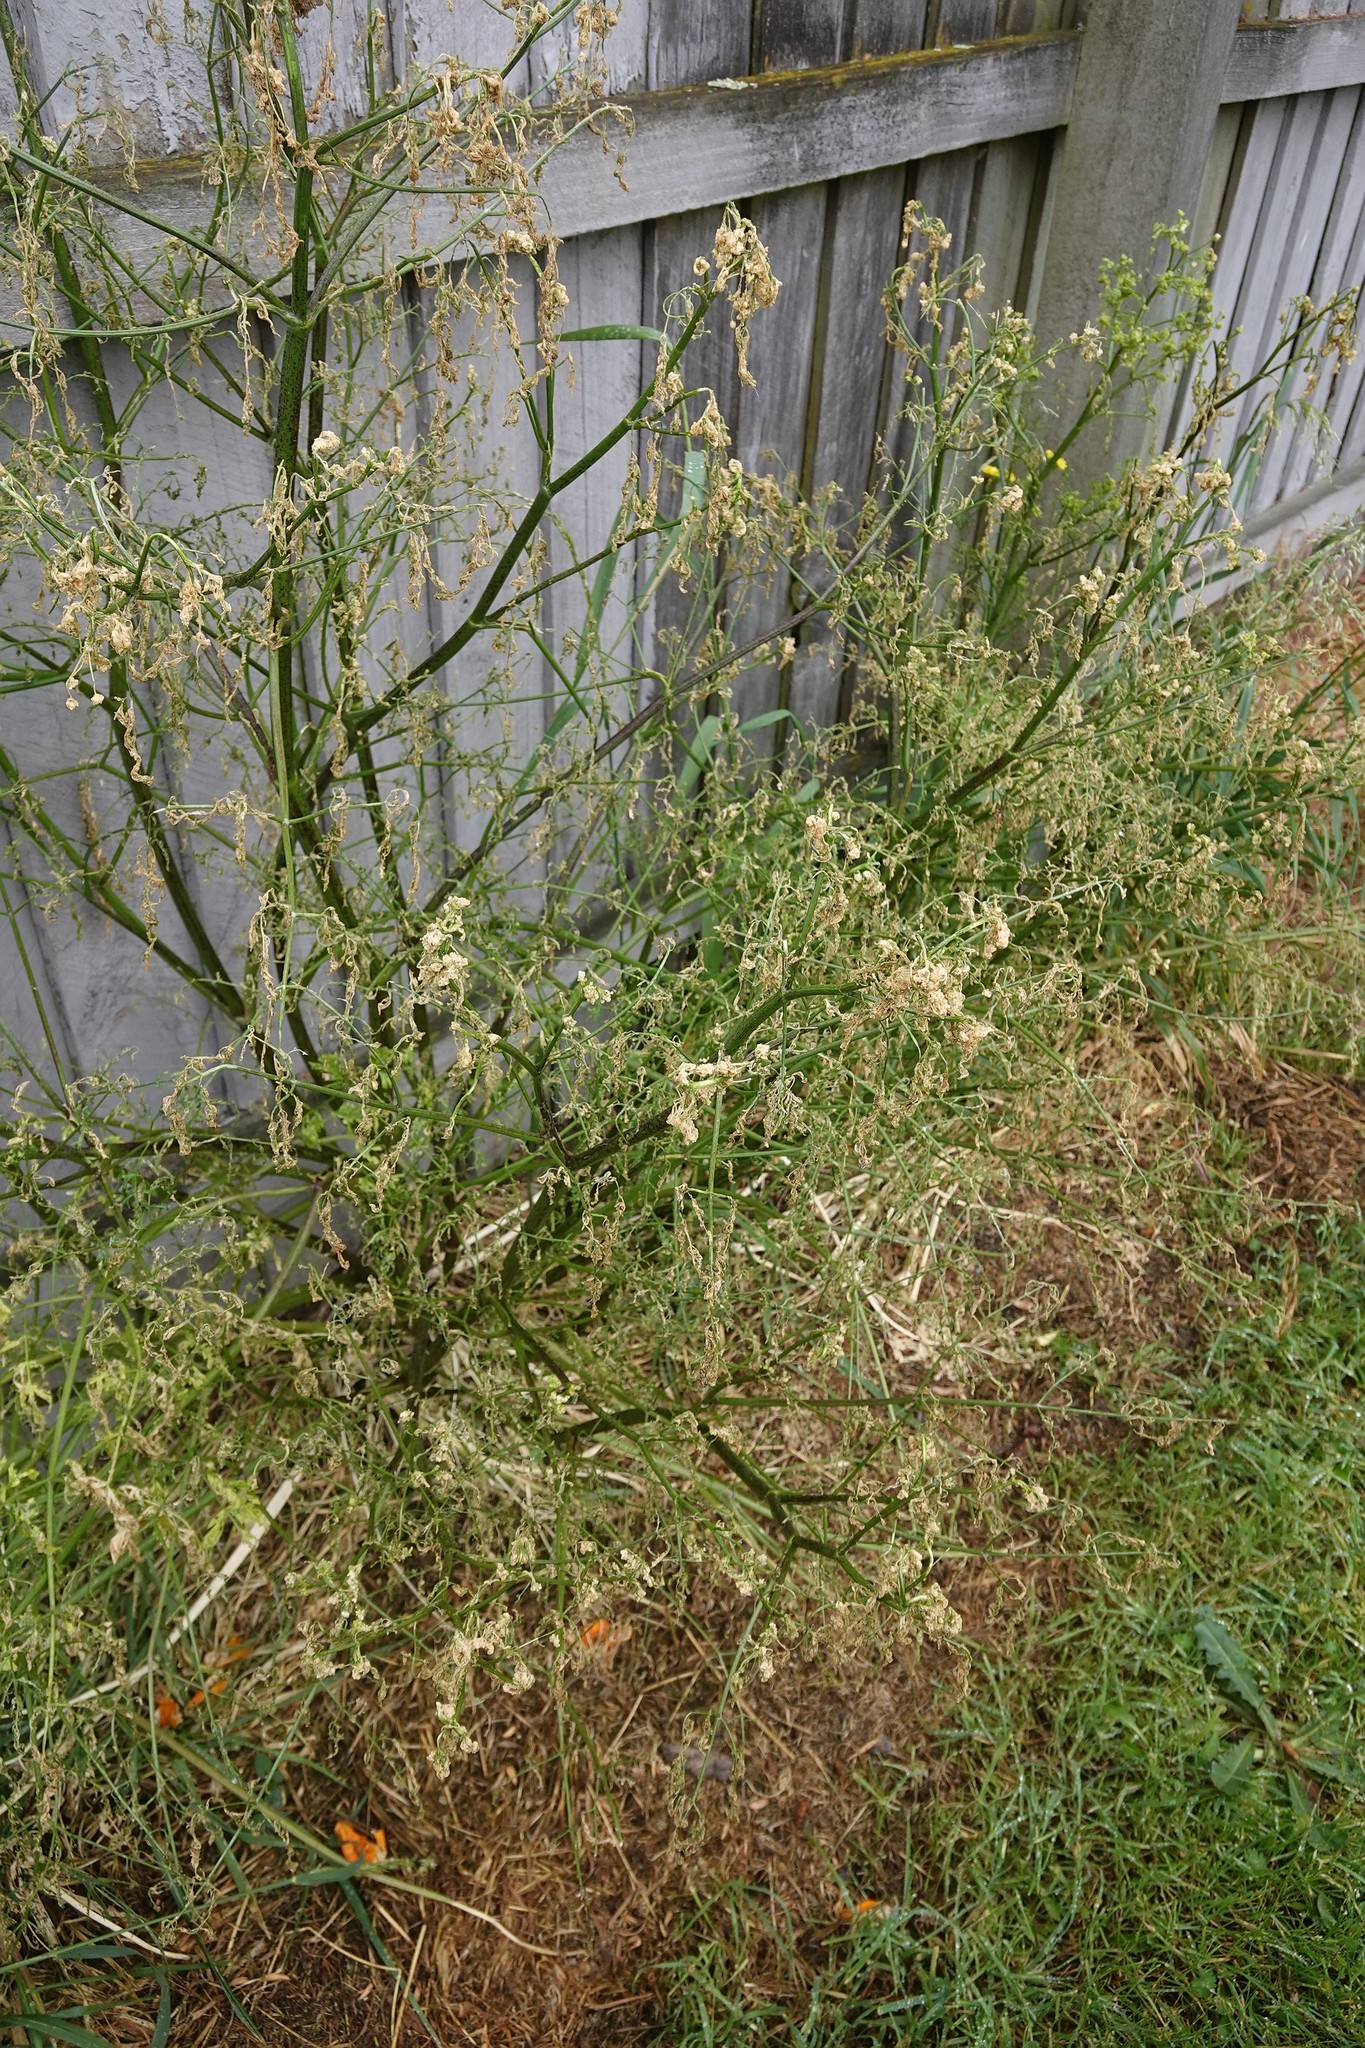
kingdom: Plantae
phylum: Tracheophyta
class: Magnoliopsida
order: Apiales
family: Apiaceae
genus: Conium
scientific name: Conium maculatum
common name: Hemlock
